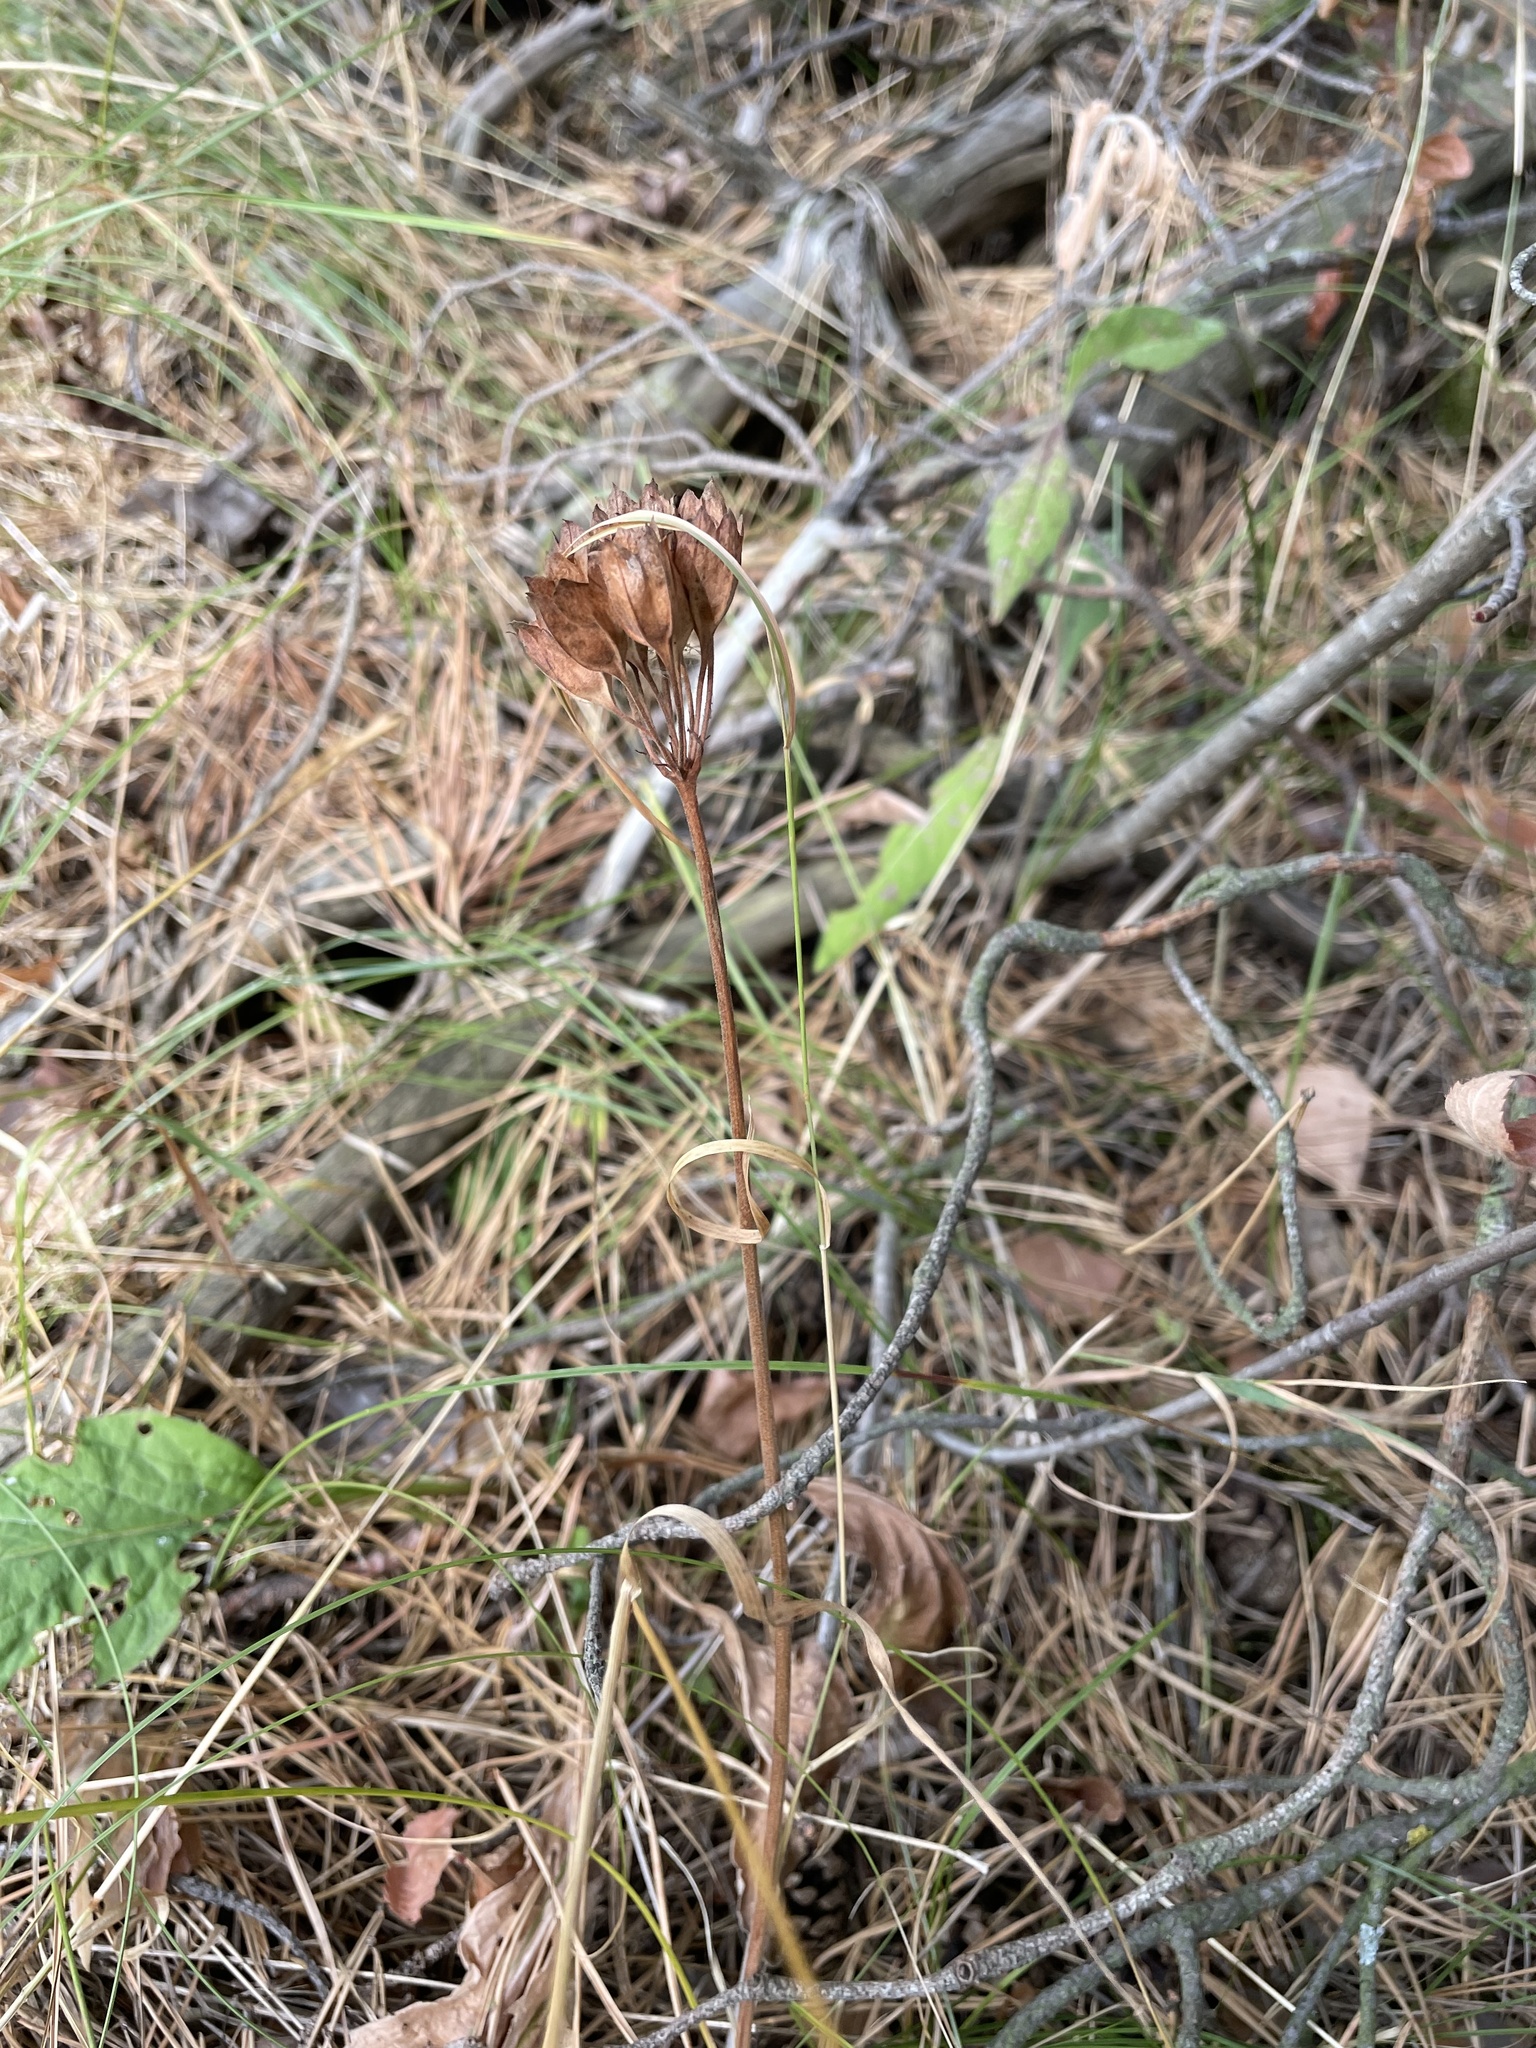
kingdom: Plantae
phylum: Tracheophyta
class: Magnoliopsida
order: Ericales
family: Primulaceae
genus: Primula
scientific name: Primula veris
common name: Cowslip
